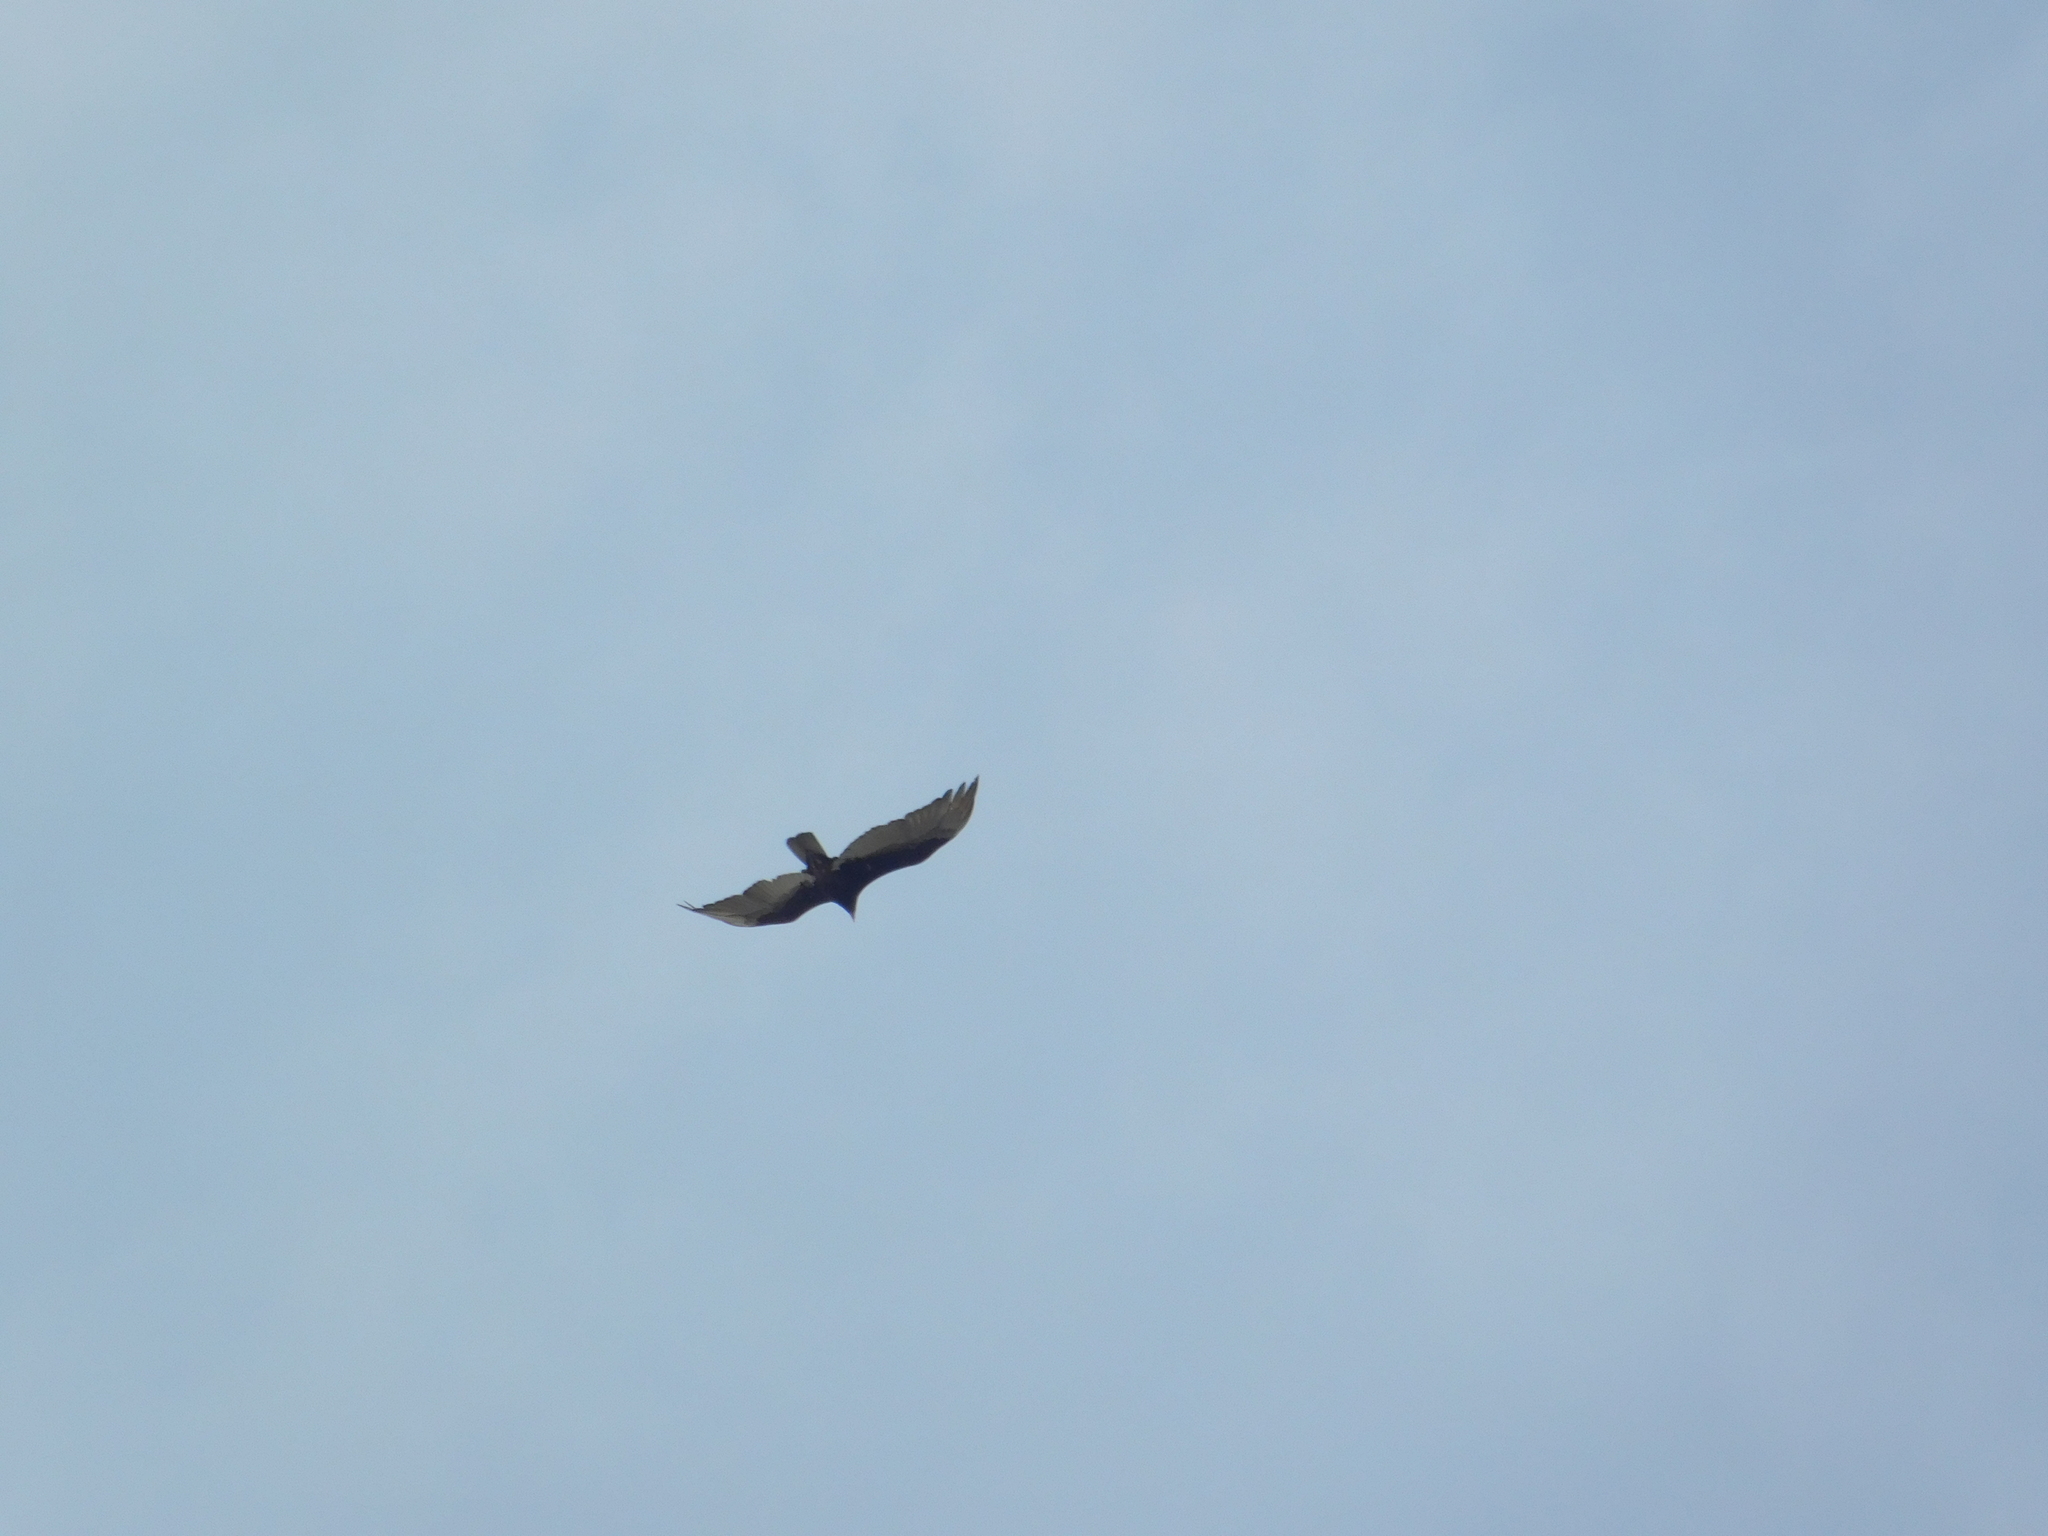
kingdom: Animalia
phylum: Chordata
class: Aves
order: Accipitriformes
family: Cathartidae
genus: Cathartes
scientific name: Cathartes aura
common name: Turkey vulture
